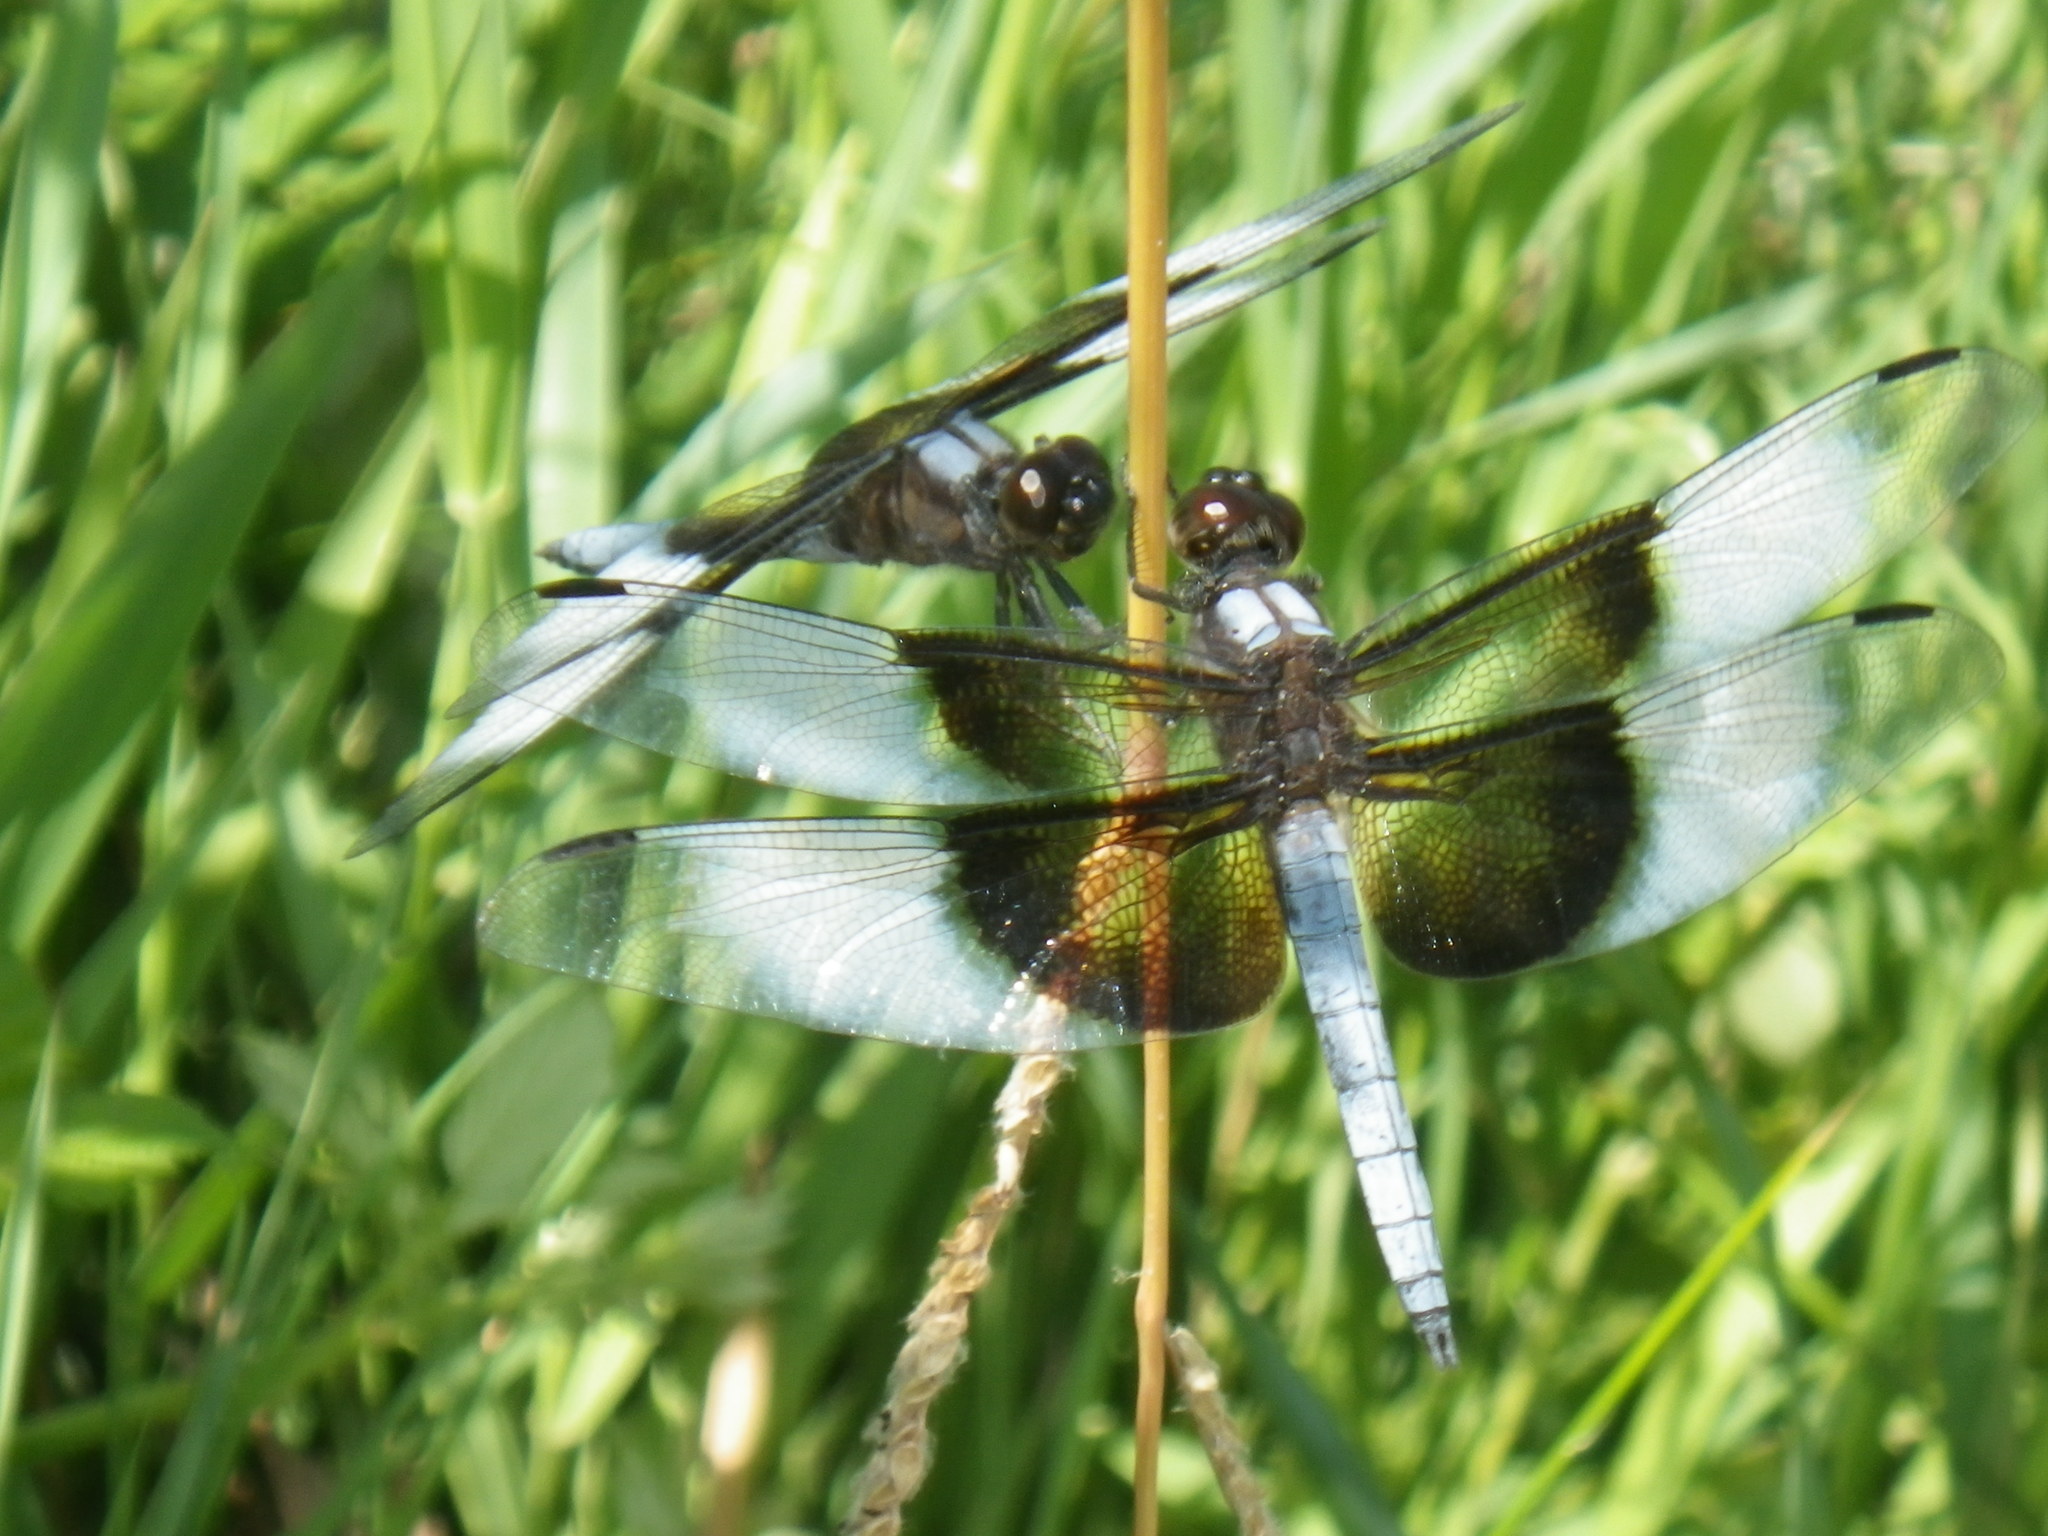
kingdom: Animalia
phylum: Arthropoda
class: Insecta
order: Odonata
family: Libellulidae
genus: Libellula
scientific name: Libellula luctuosa
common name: Widow skimmer
